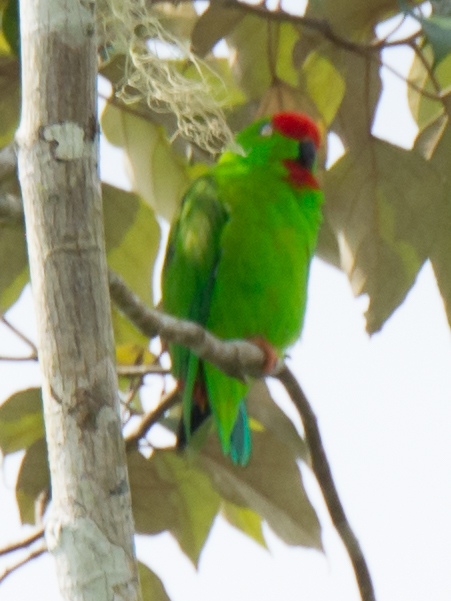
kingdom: Animalia
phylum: Chordata
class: Aves
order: Psittaciformes
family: Psittacidae
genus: Loriculus
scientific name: Loriculus stigmatus
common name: Great hanging parrot
